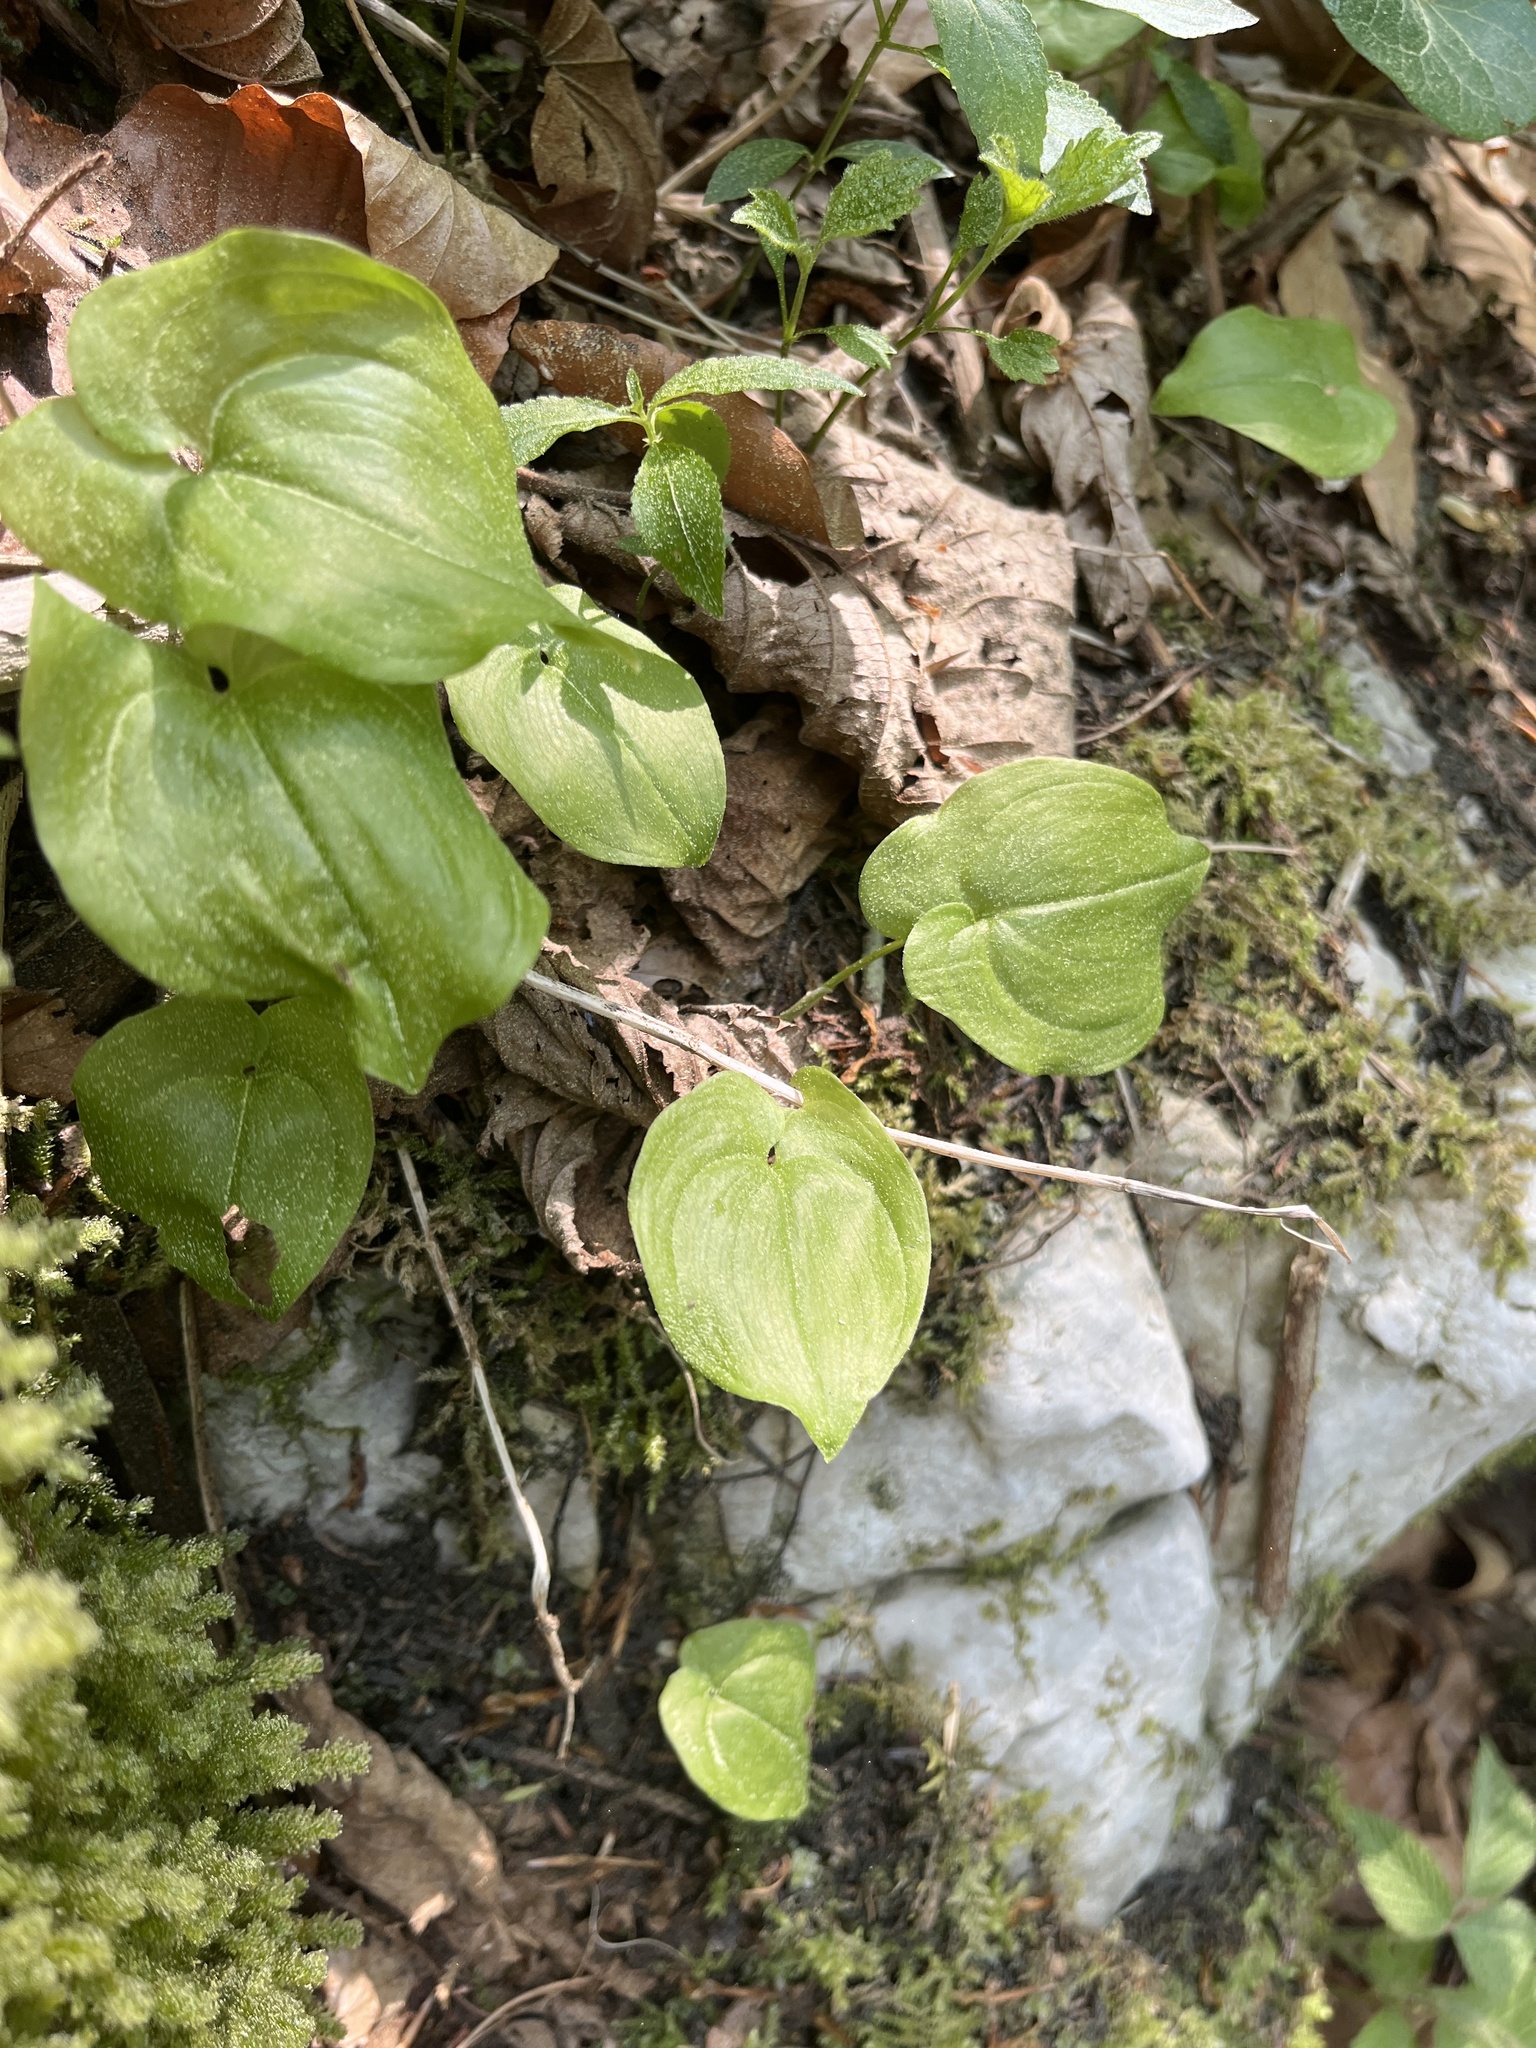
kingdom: Plantae
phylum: Tracheophyta
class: Liliopsida
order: Asparagales
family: Asparagaceae
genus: Maianthemum
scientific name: Maianthemum bifolium
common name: May lily
